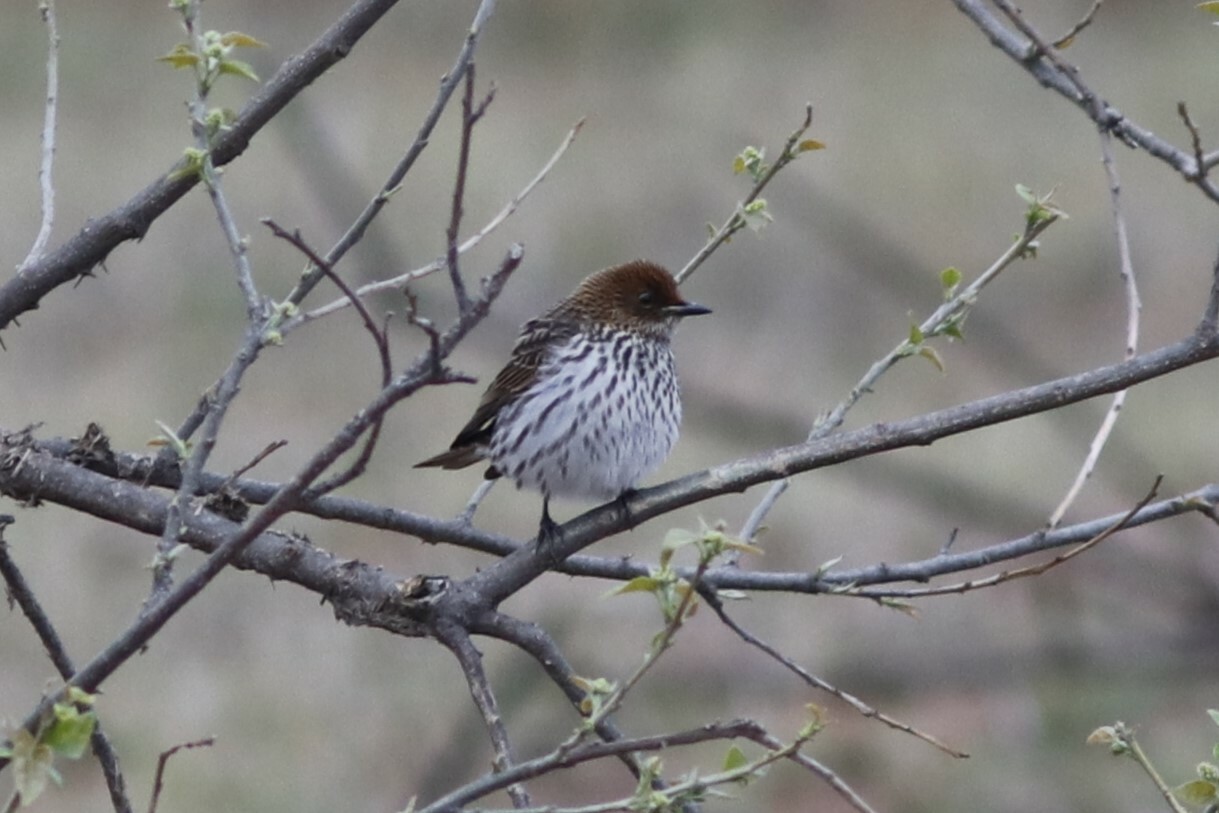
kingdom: Animalia
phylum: Chordata
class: Aves
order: Passeriformes
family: Sturnidae
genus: Cinnyricinclus
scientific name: Cinnyricinclus leucogaster
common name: Violet-backed starling
